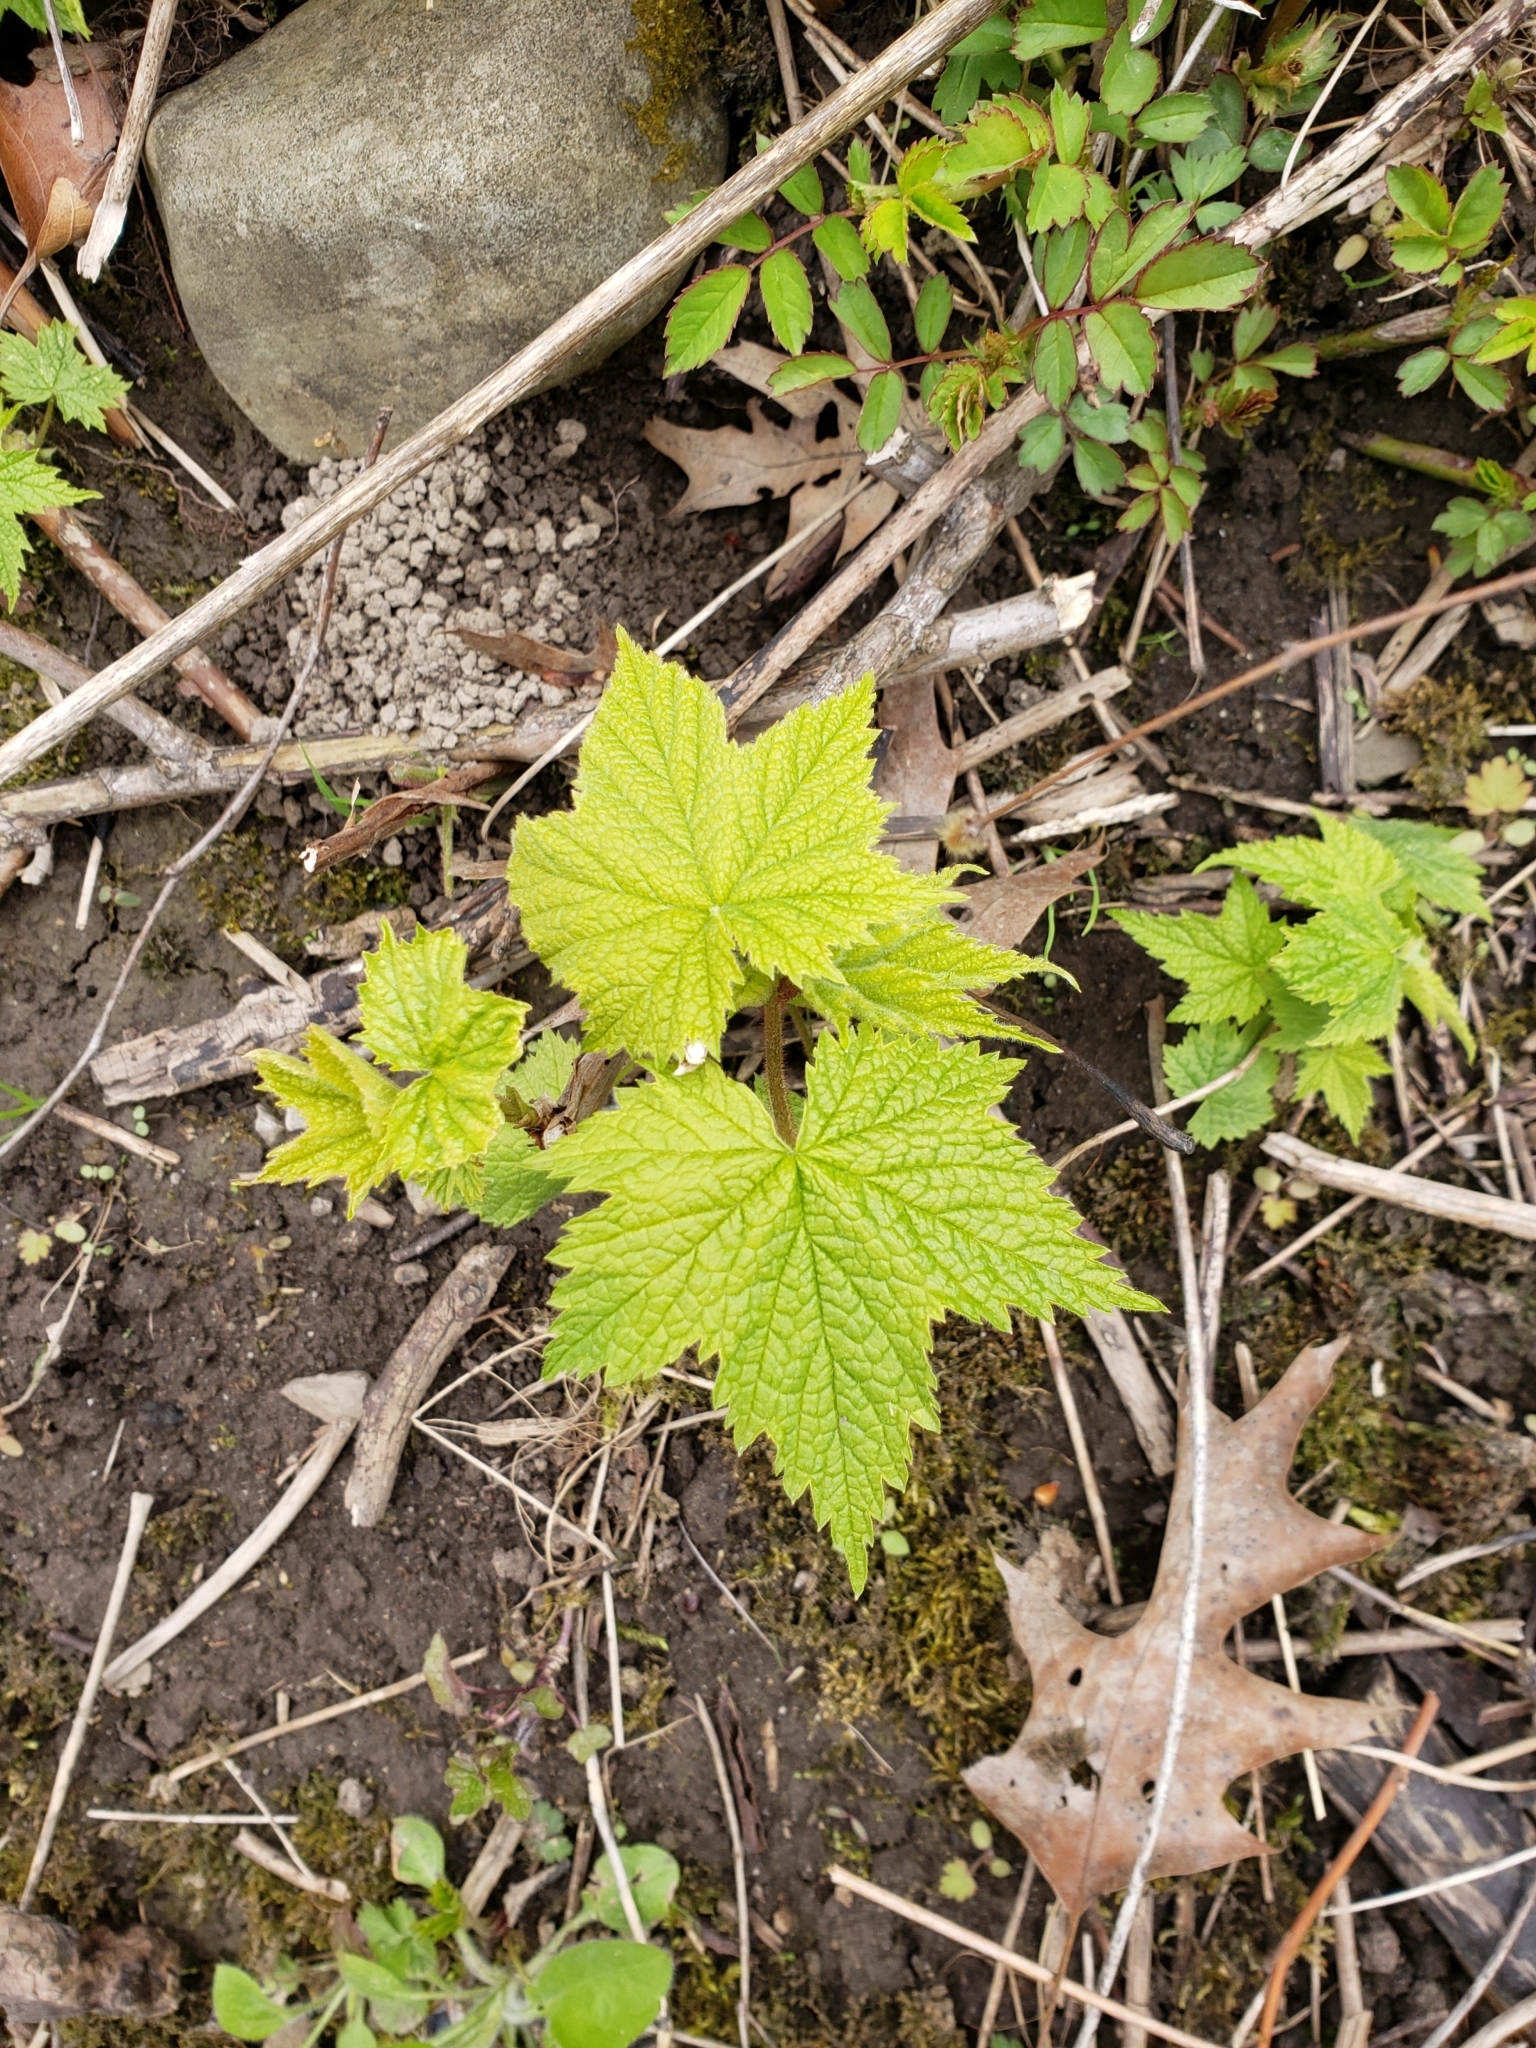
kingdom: Plantae
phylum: Tracheophyta
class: Magnoliopsida
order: Rosales
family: Rosaceae
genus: Rubus
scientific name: Rubus odoratus
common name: Purple-flowered raspberry
